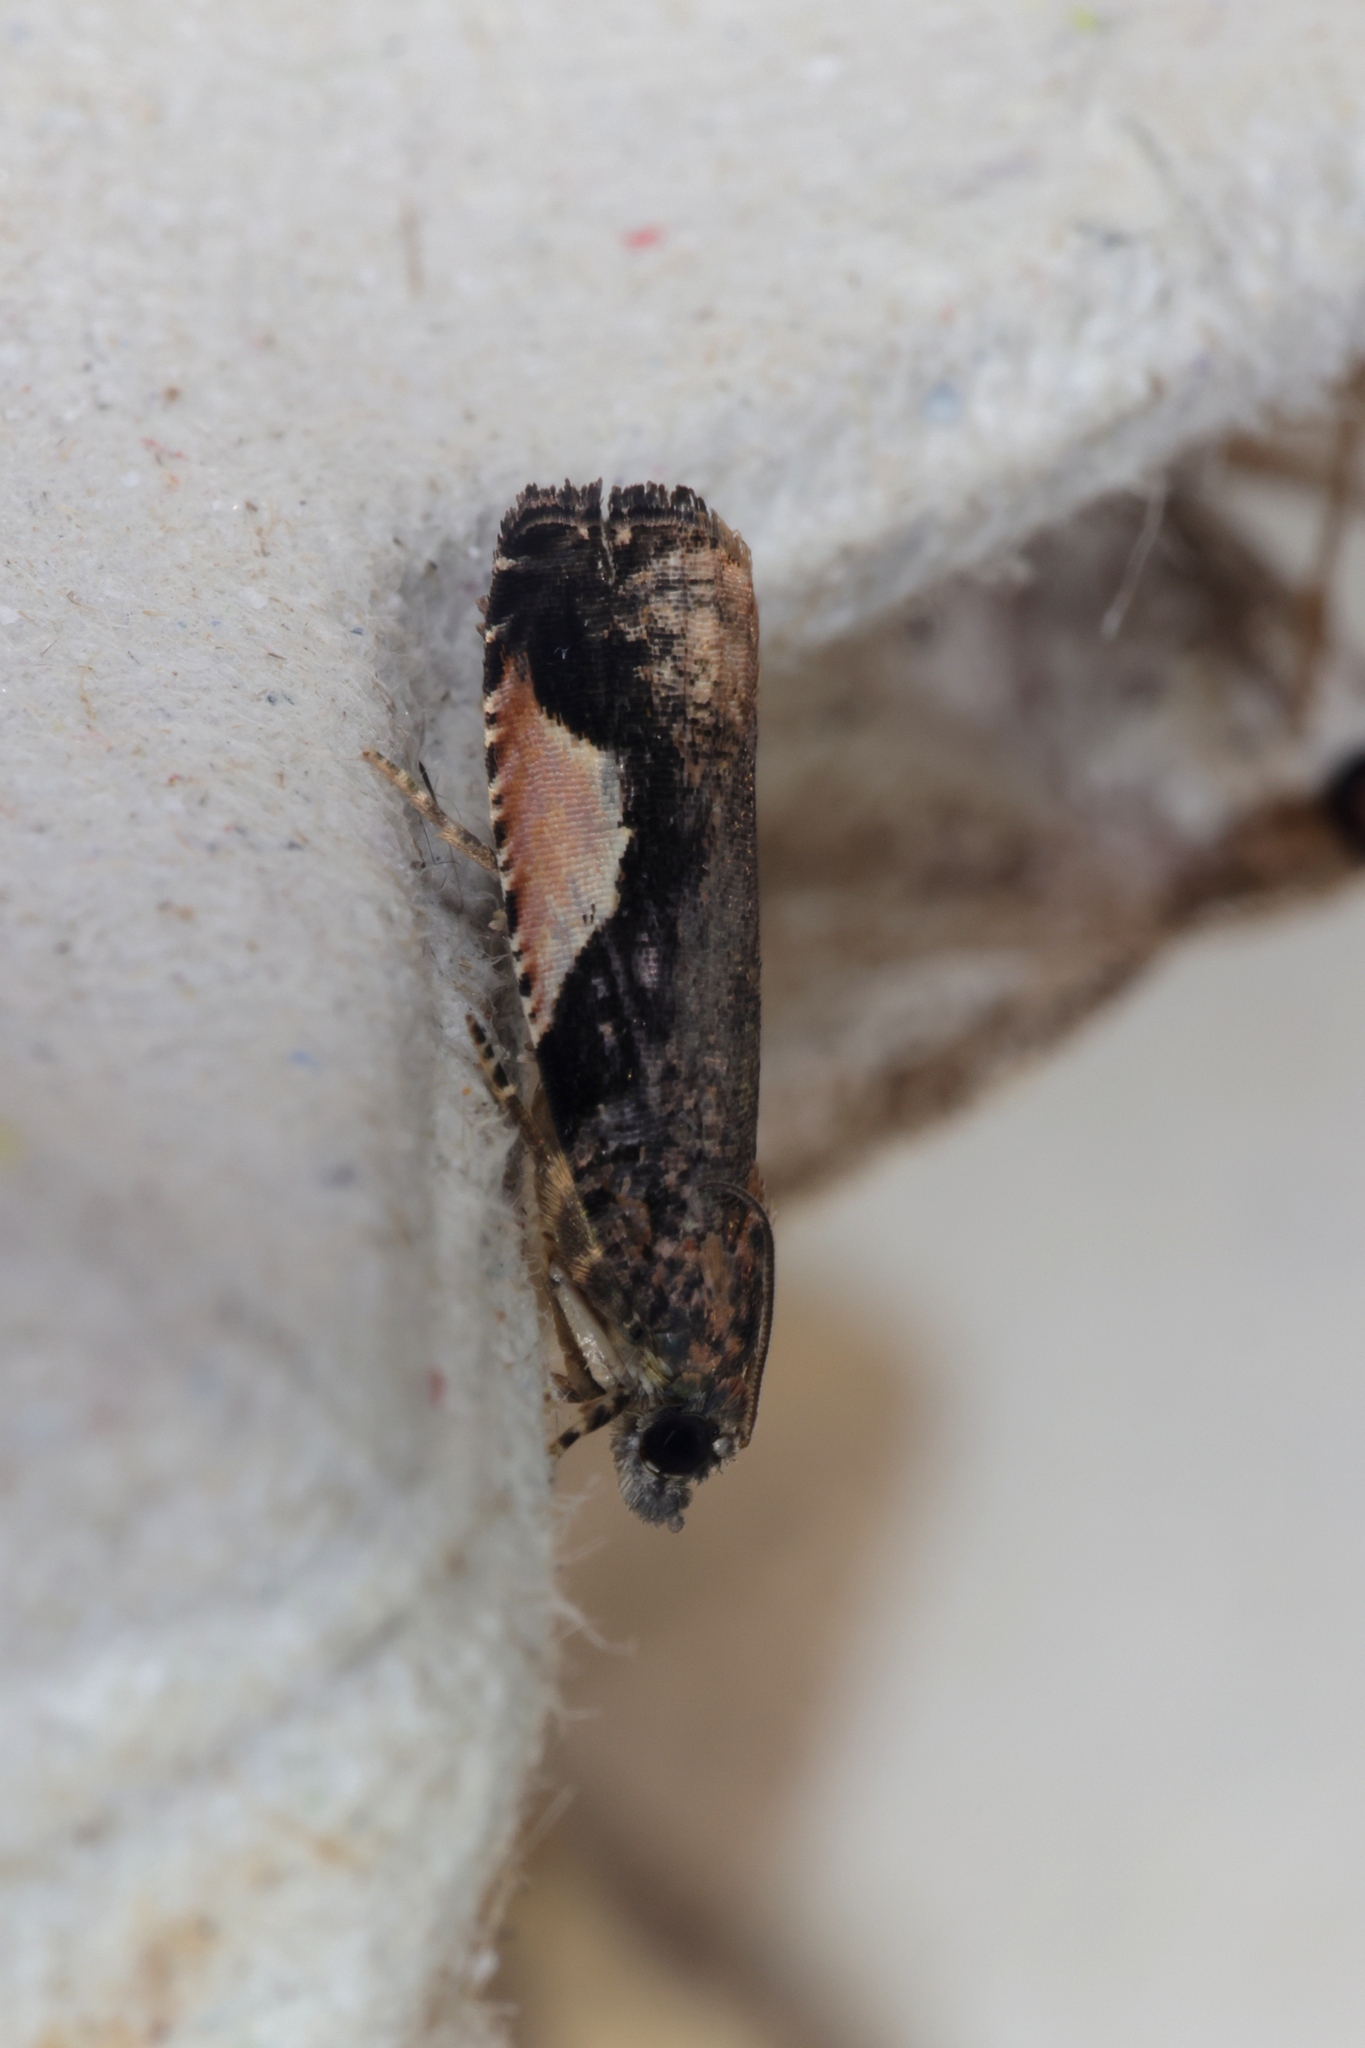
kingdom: Animalia
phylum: Arthropoda
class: Insecta
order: Lepidoptera
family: Tortricidae
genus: Statherotis
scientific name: Statherotis discana
